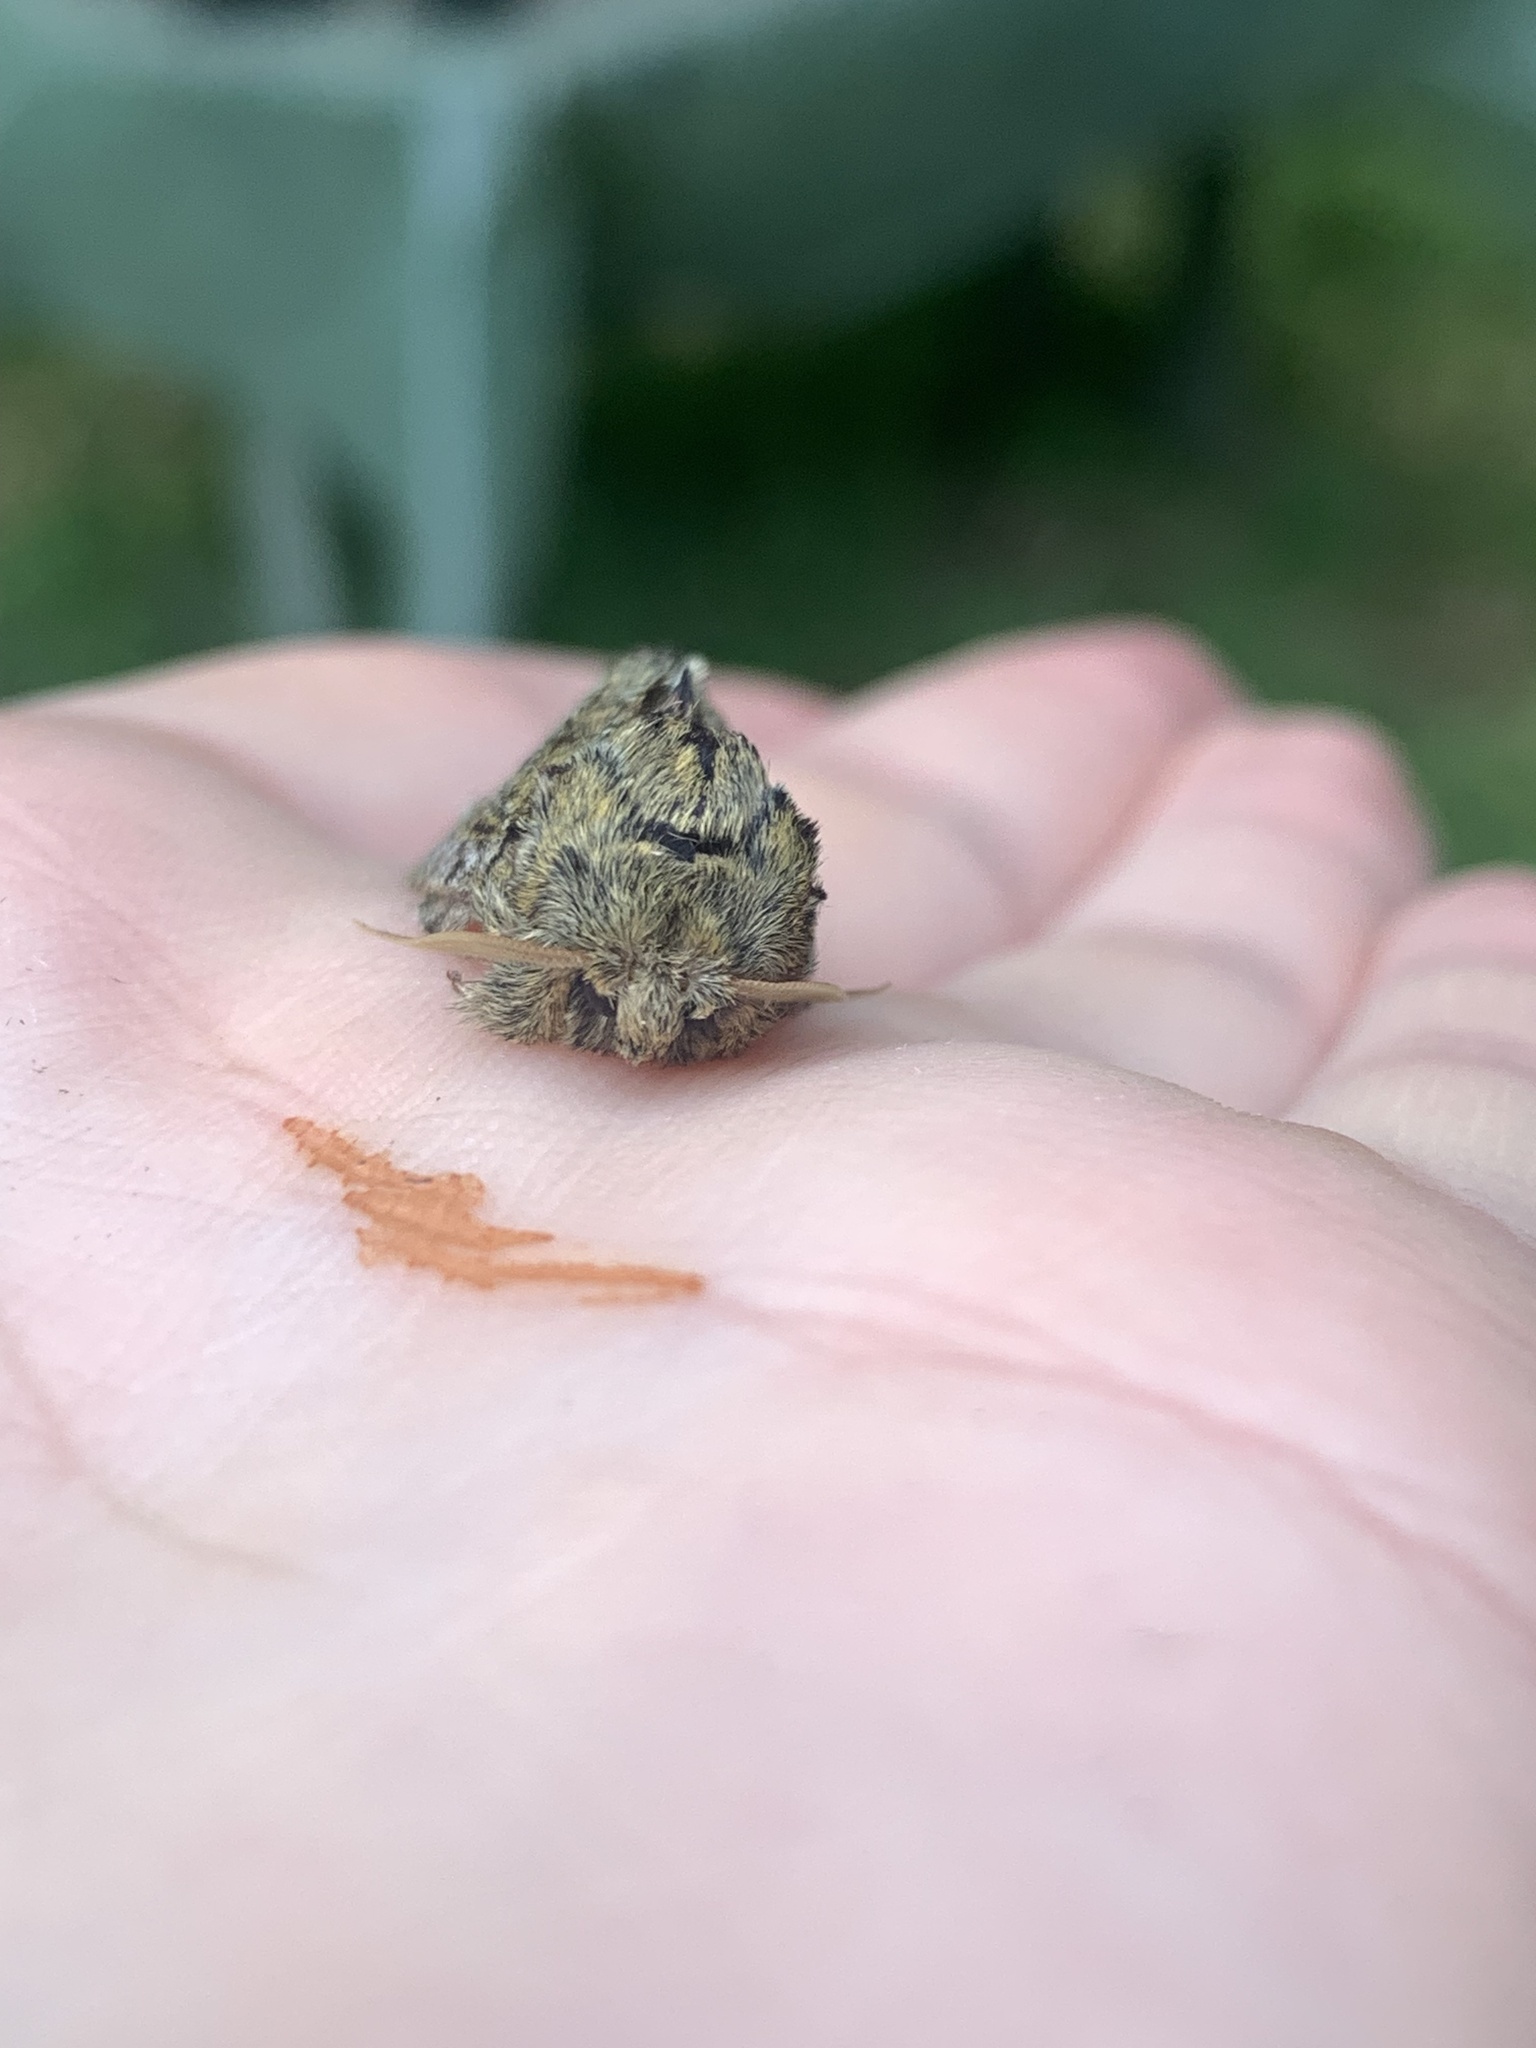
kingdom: Animalia
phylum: Arthropoda
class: Insecta
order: Lepidoptera
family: Notodontidae
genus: Peridea
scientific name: Peridea anceps
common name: Great prominent
